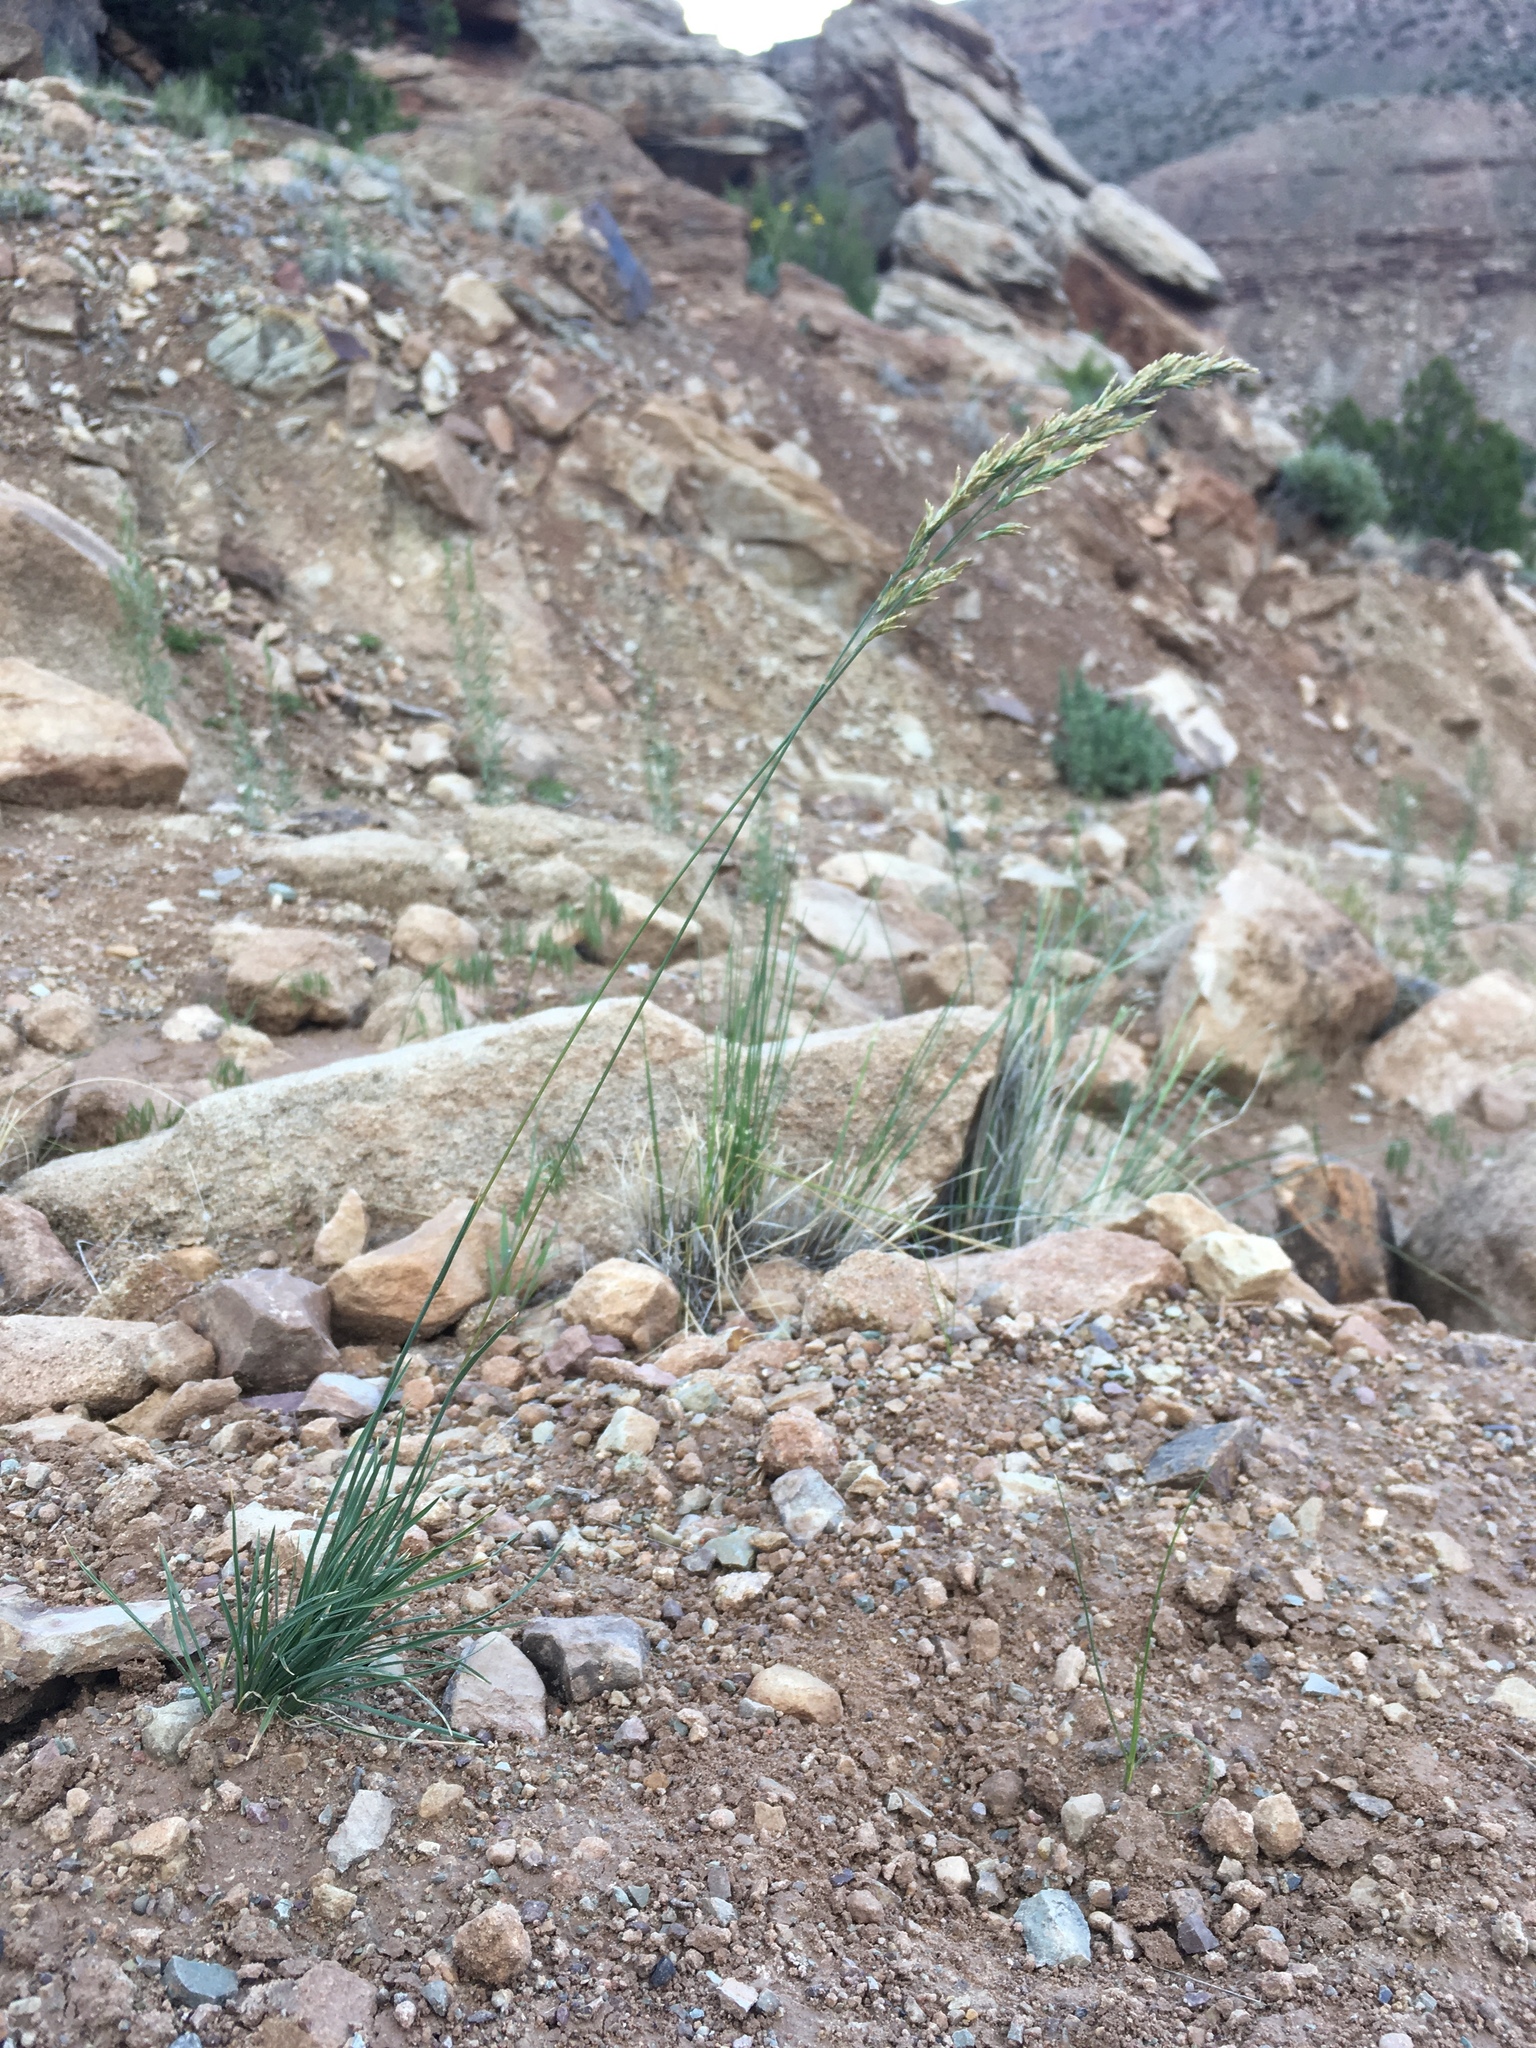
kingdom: Plantae
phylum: Tracheophyta
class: Liliopsida
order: Poales
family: Poaceae
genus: Poa
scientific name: Poa secunda
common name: Sandberg bluegrass
